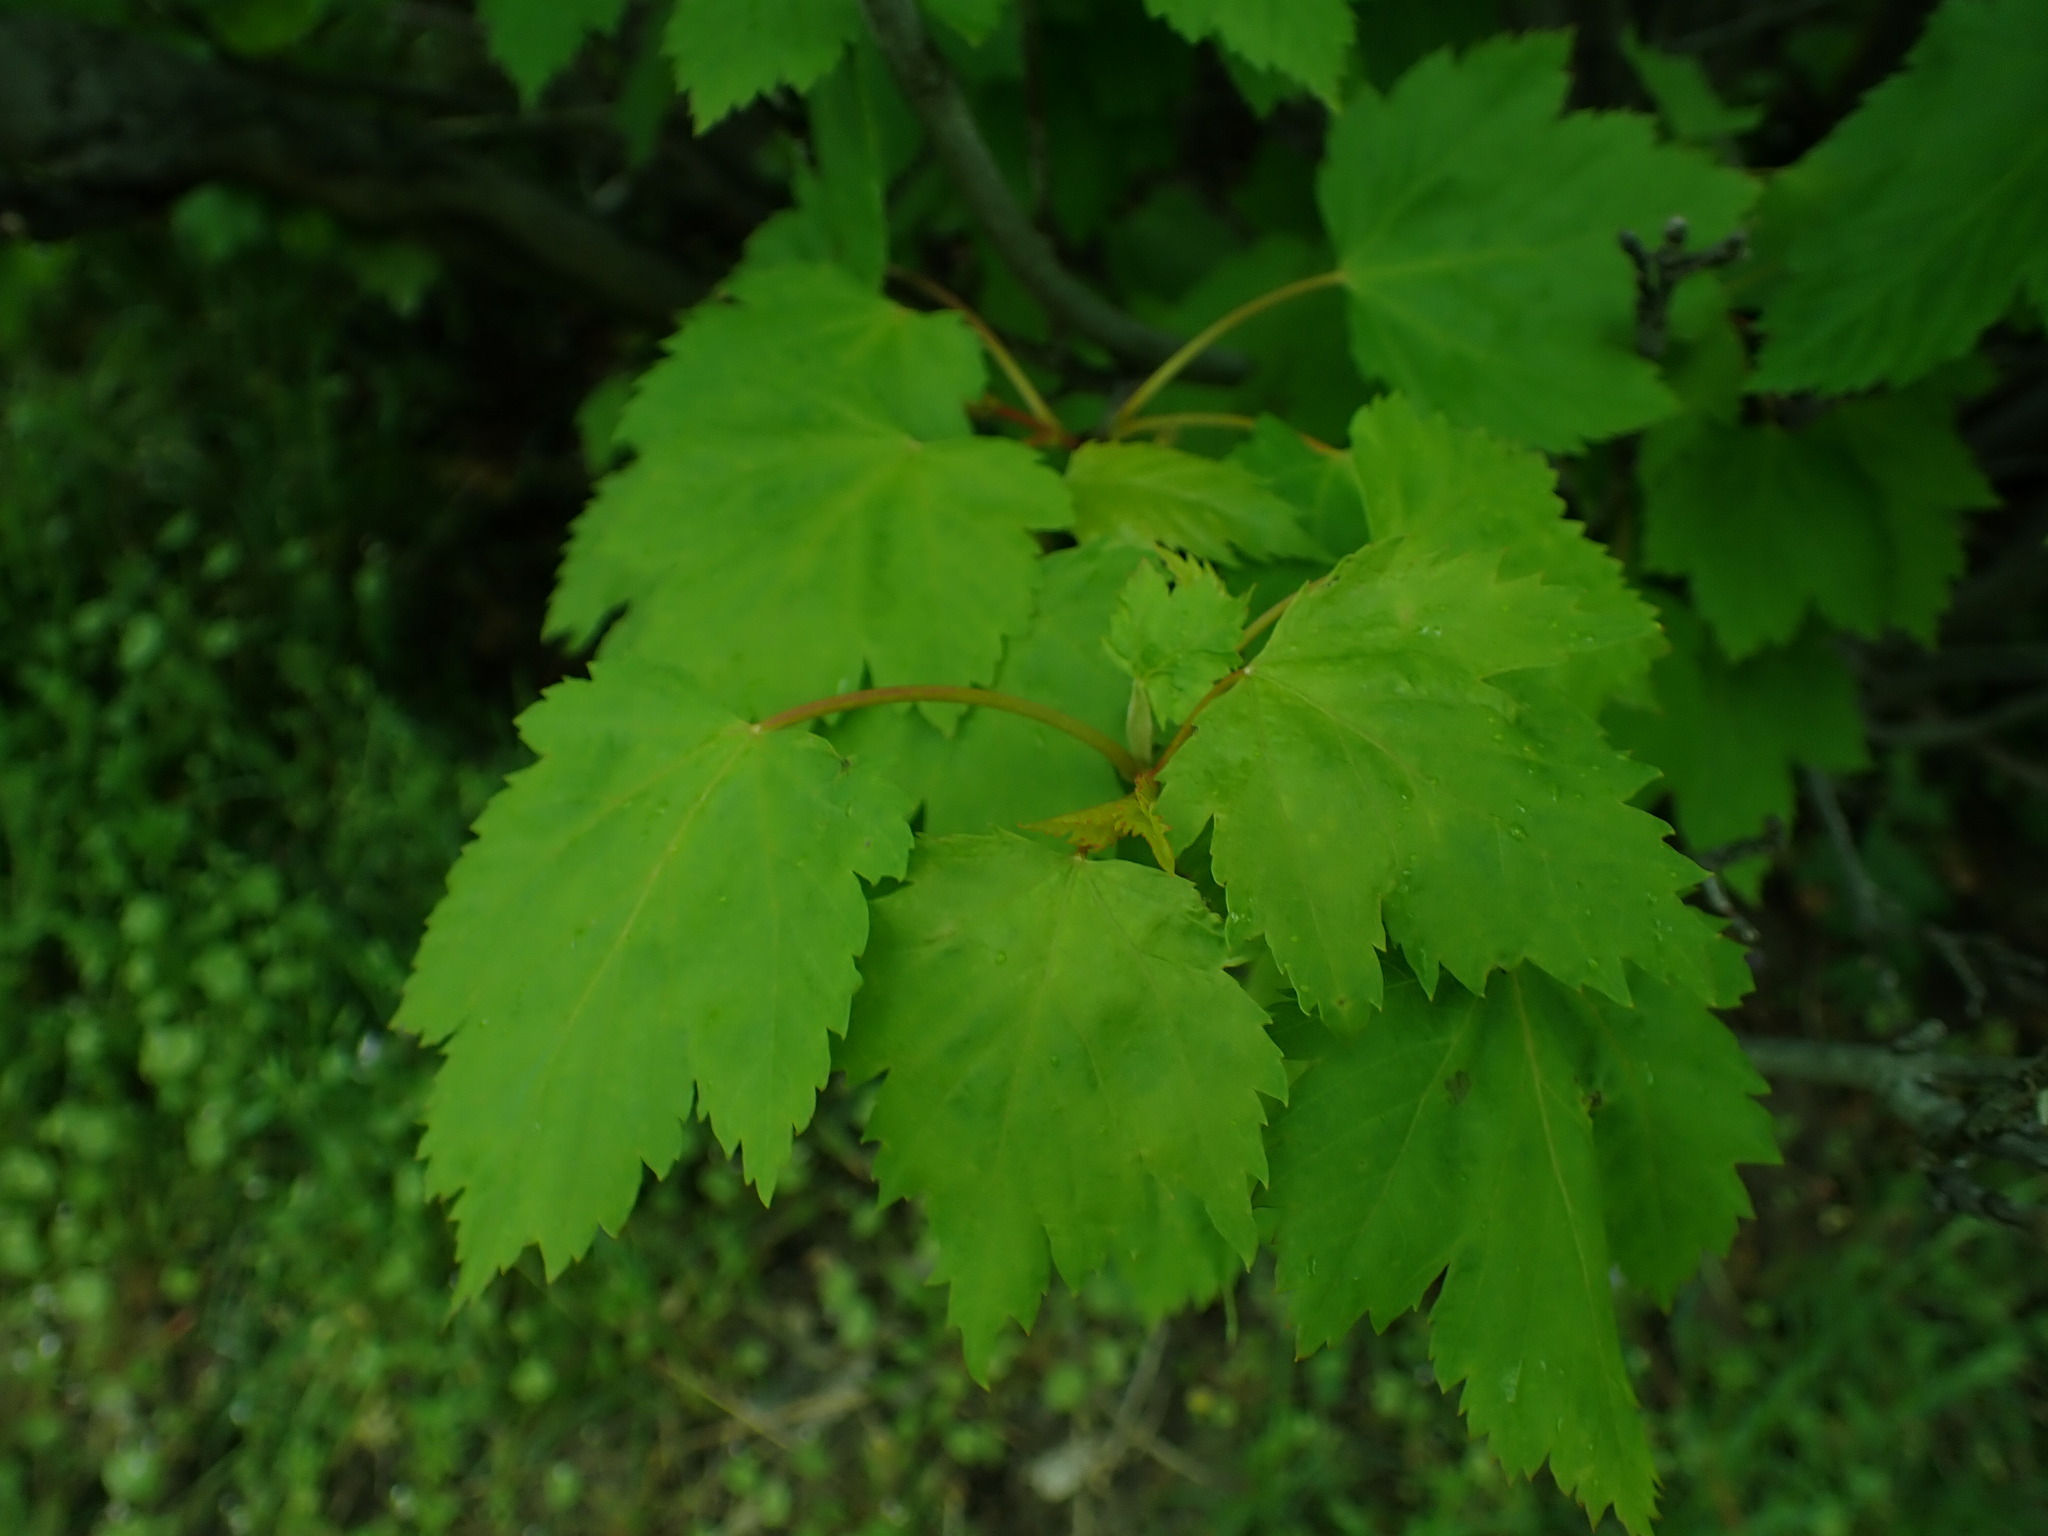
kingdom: Plantae
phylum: Tracheophyta
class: Magnoliopsida
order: Sapindales
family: Sapindaceae
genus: Acer
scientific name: Acer glabrum
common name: Rocky mountain maple
